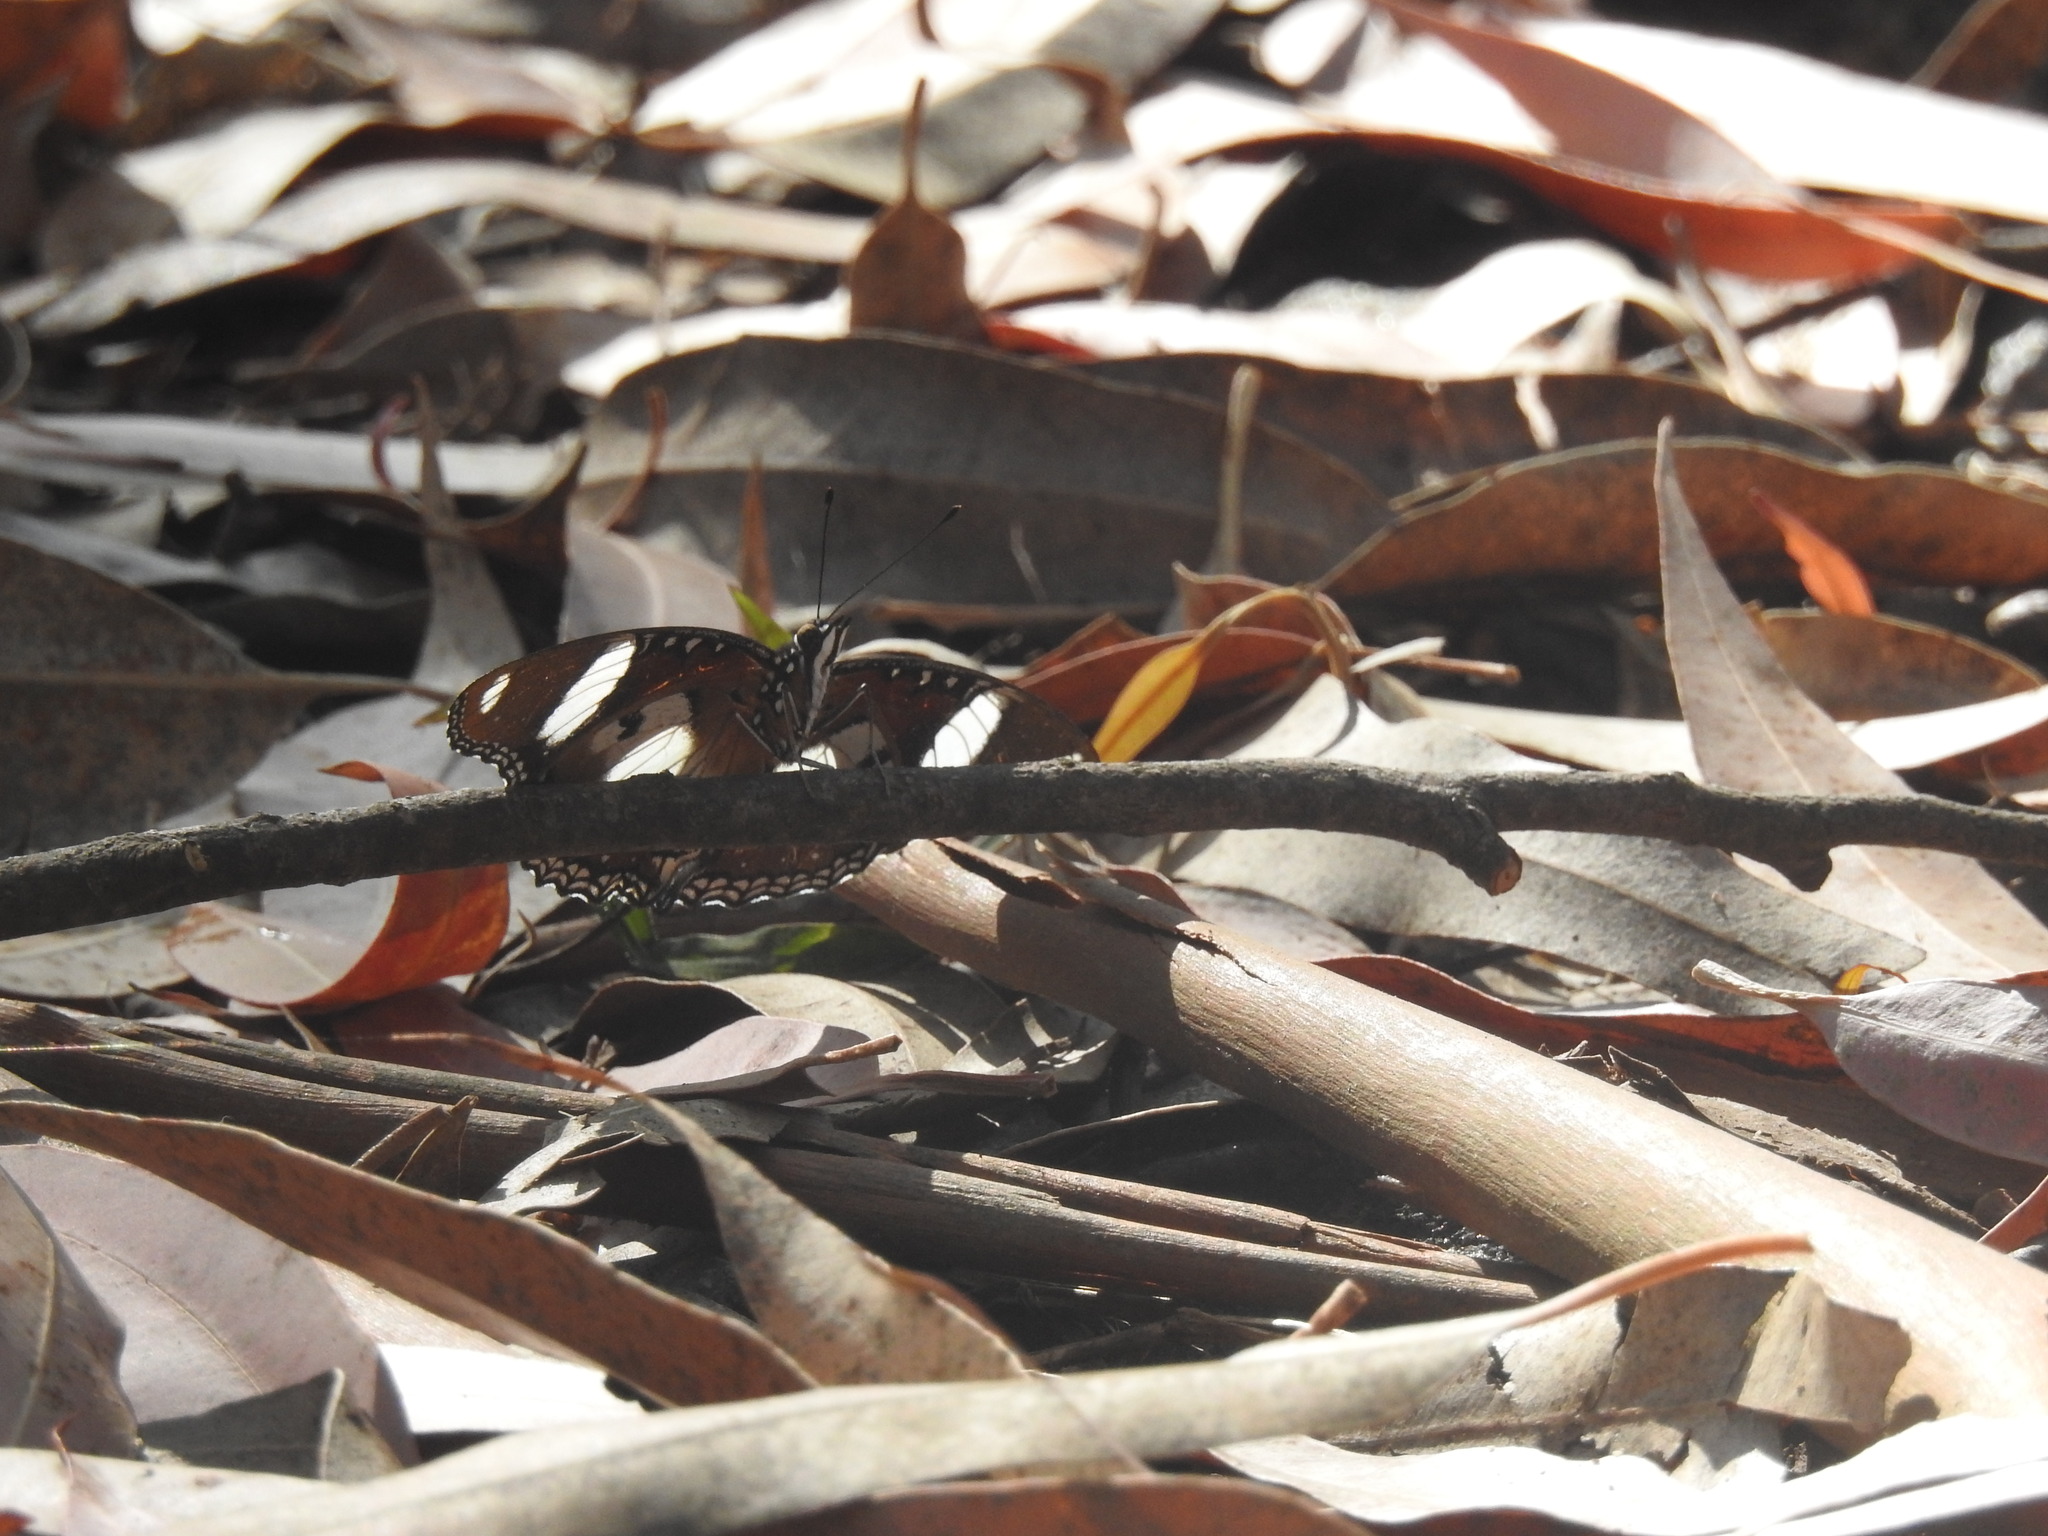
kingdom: Animalia
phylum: Arthropoda
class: Insecta
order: Lepidoptera
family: Nymphalidae
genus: Hypolimnas
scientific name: Hypolimnas misippus
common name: False plain tiger
